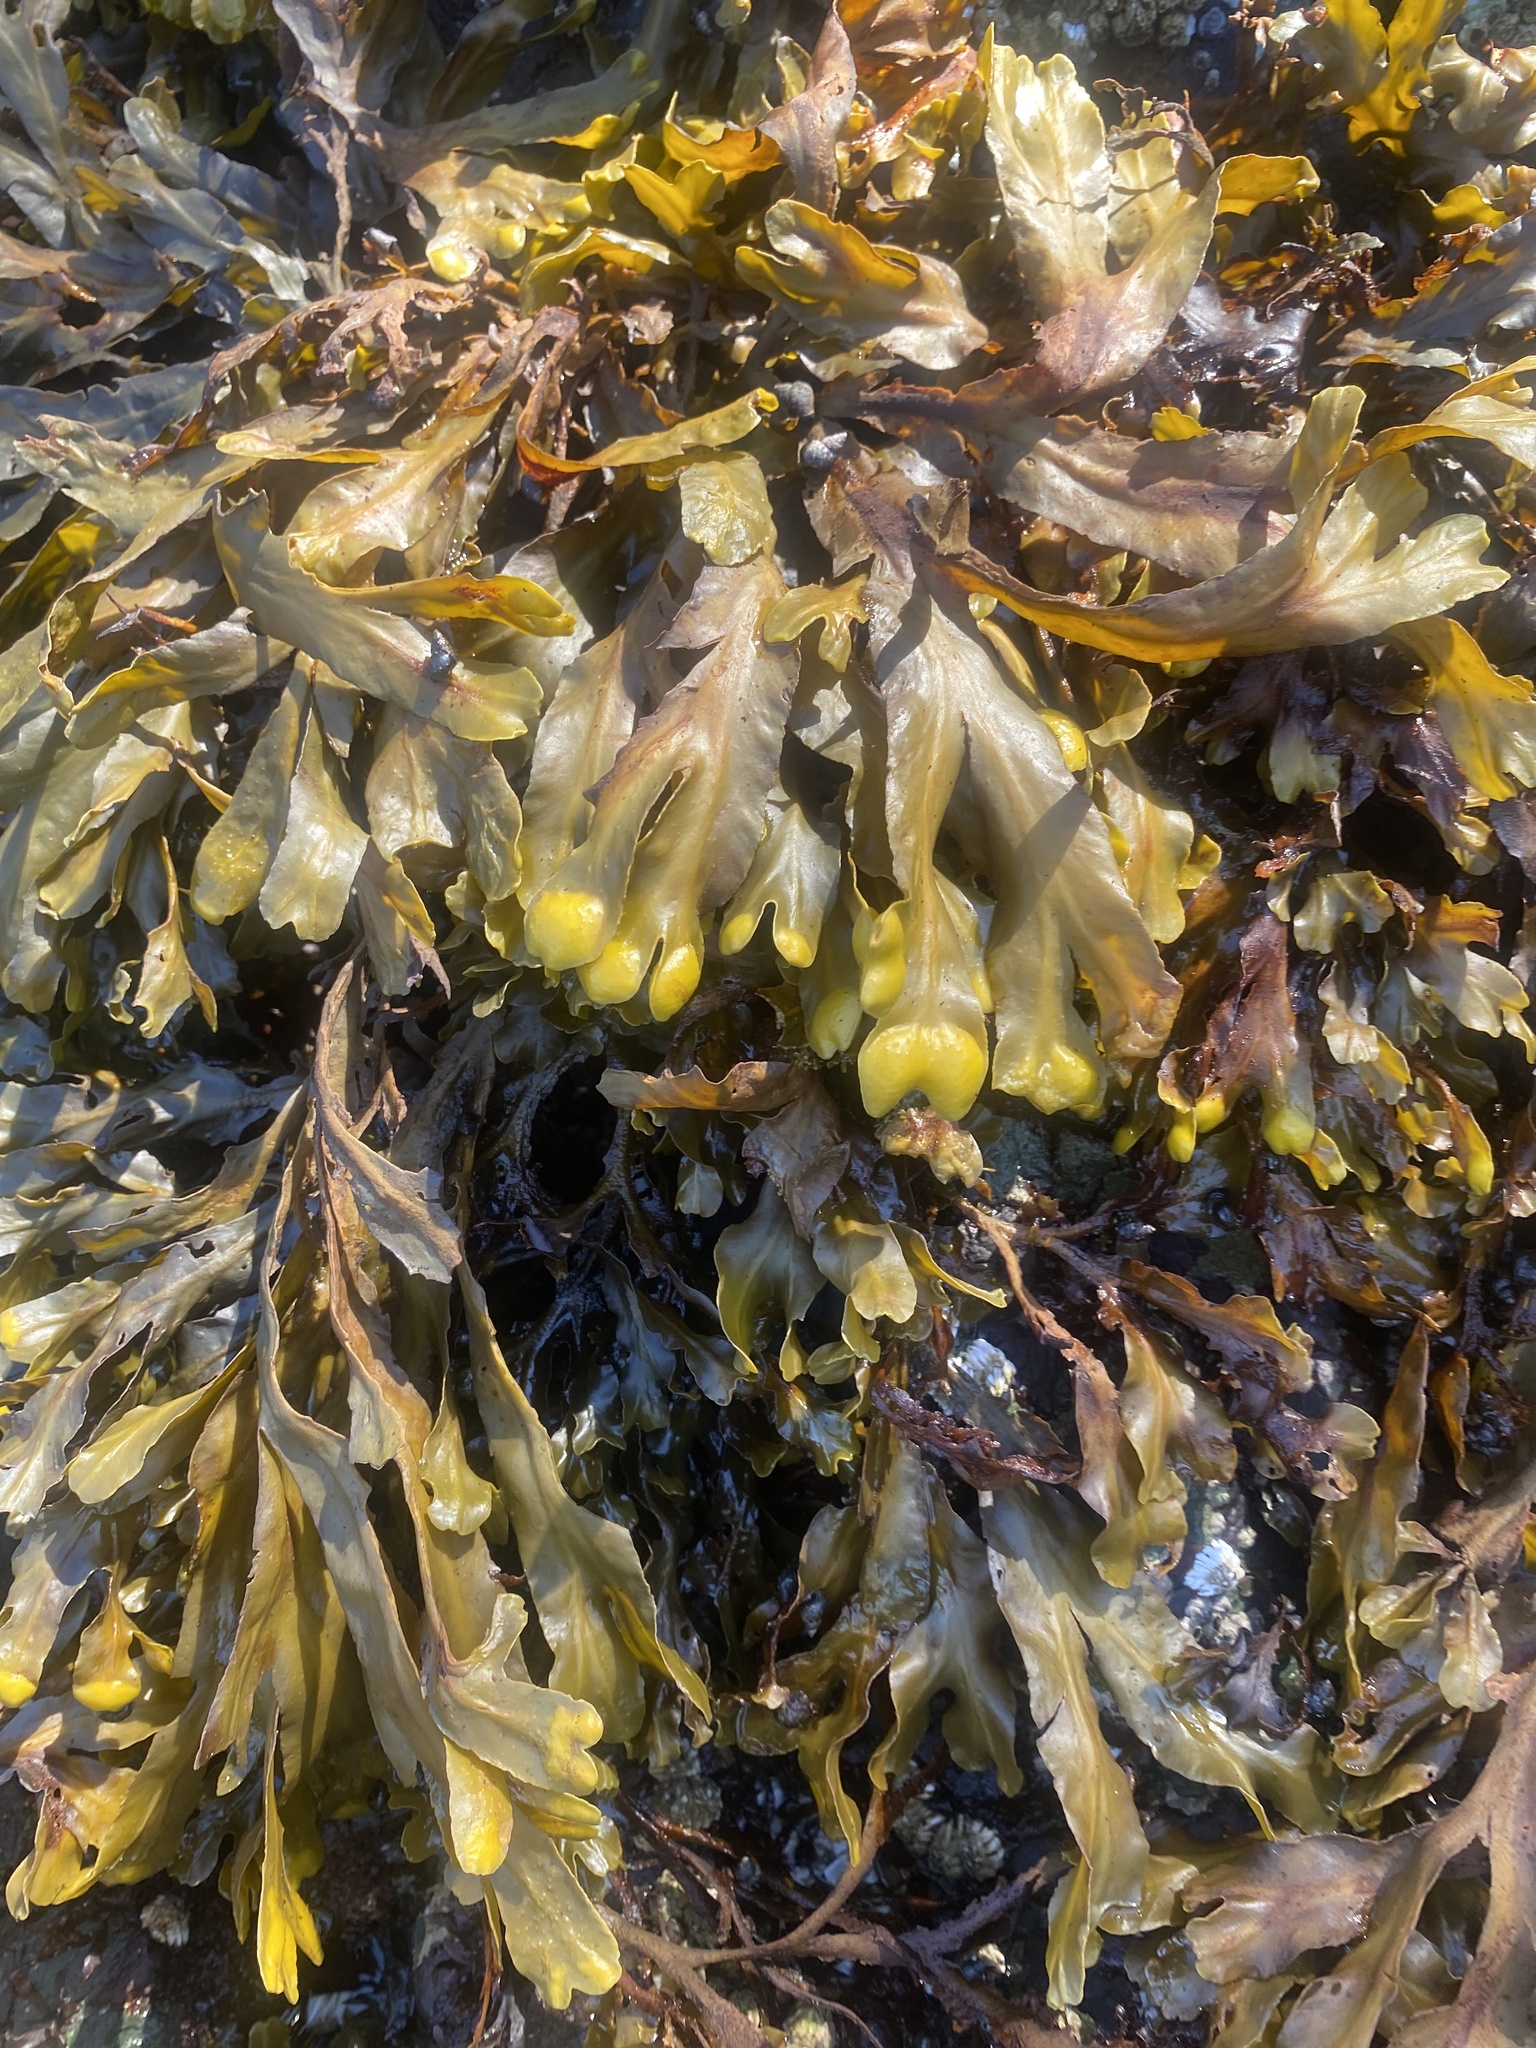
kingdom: Chromista
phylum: Ochrophyta
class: Phaeophyceae
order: Fucales
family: Fucaceae
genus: Fucus
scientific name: Fucus distichus
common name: Rockweed
